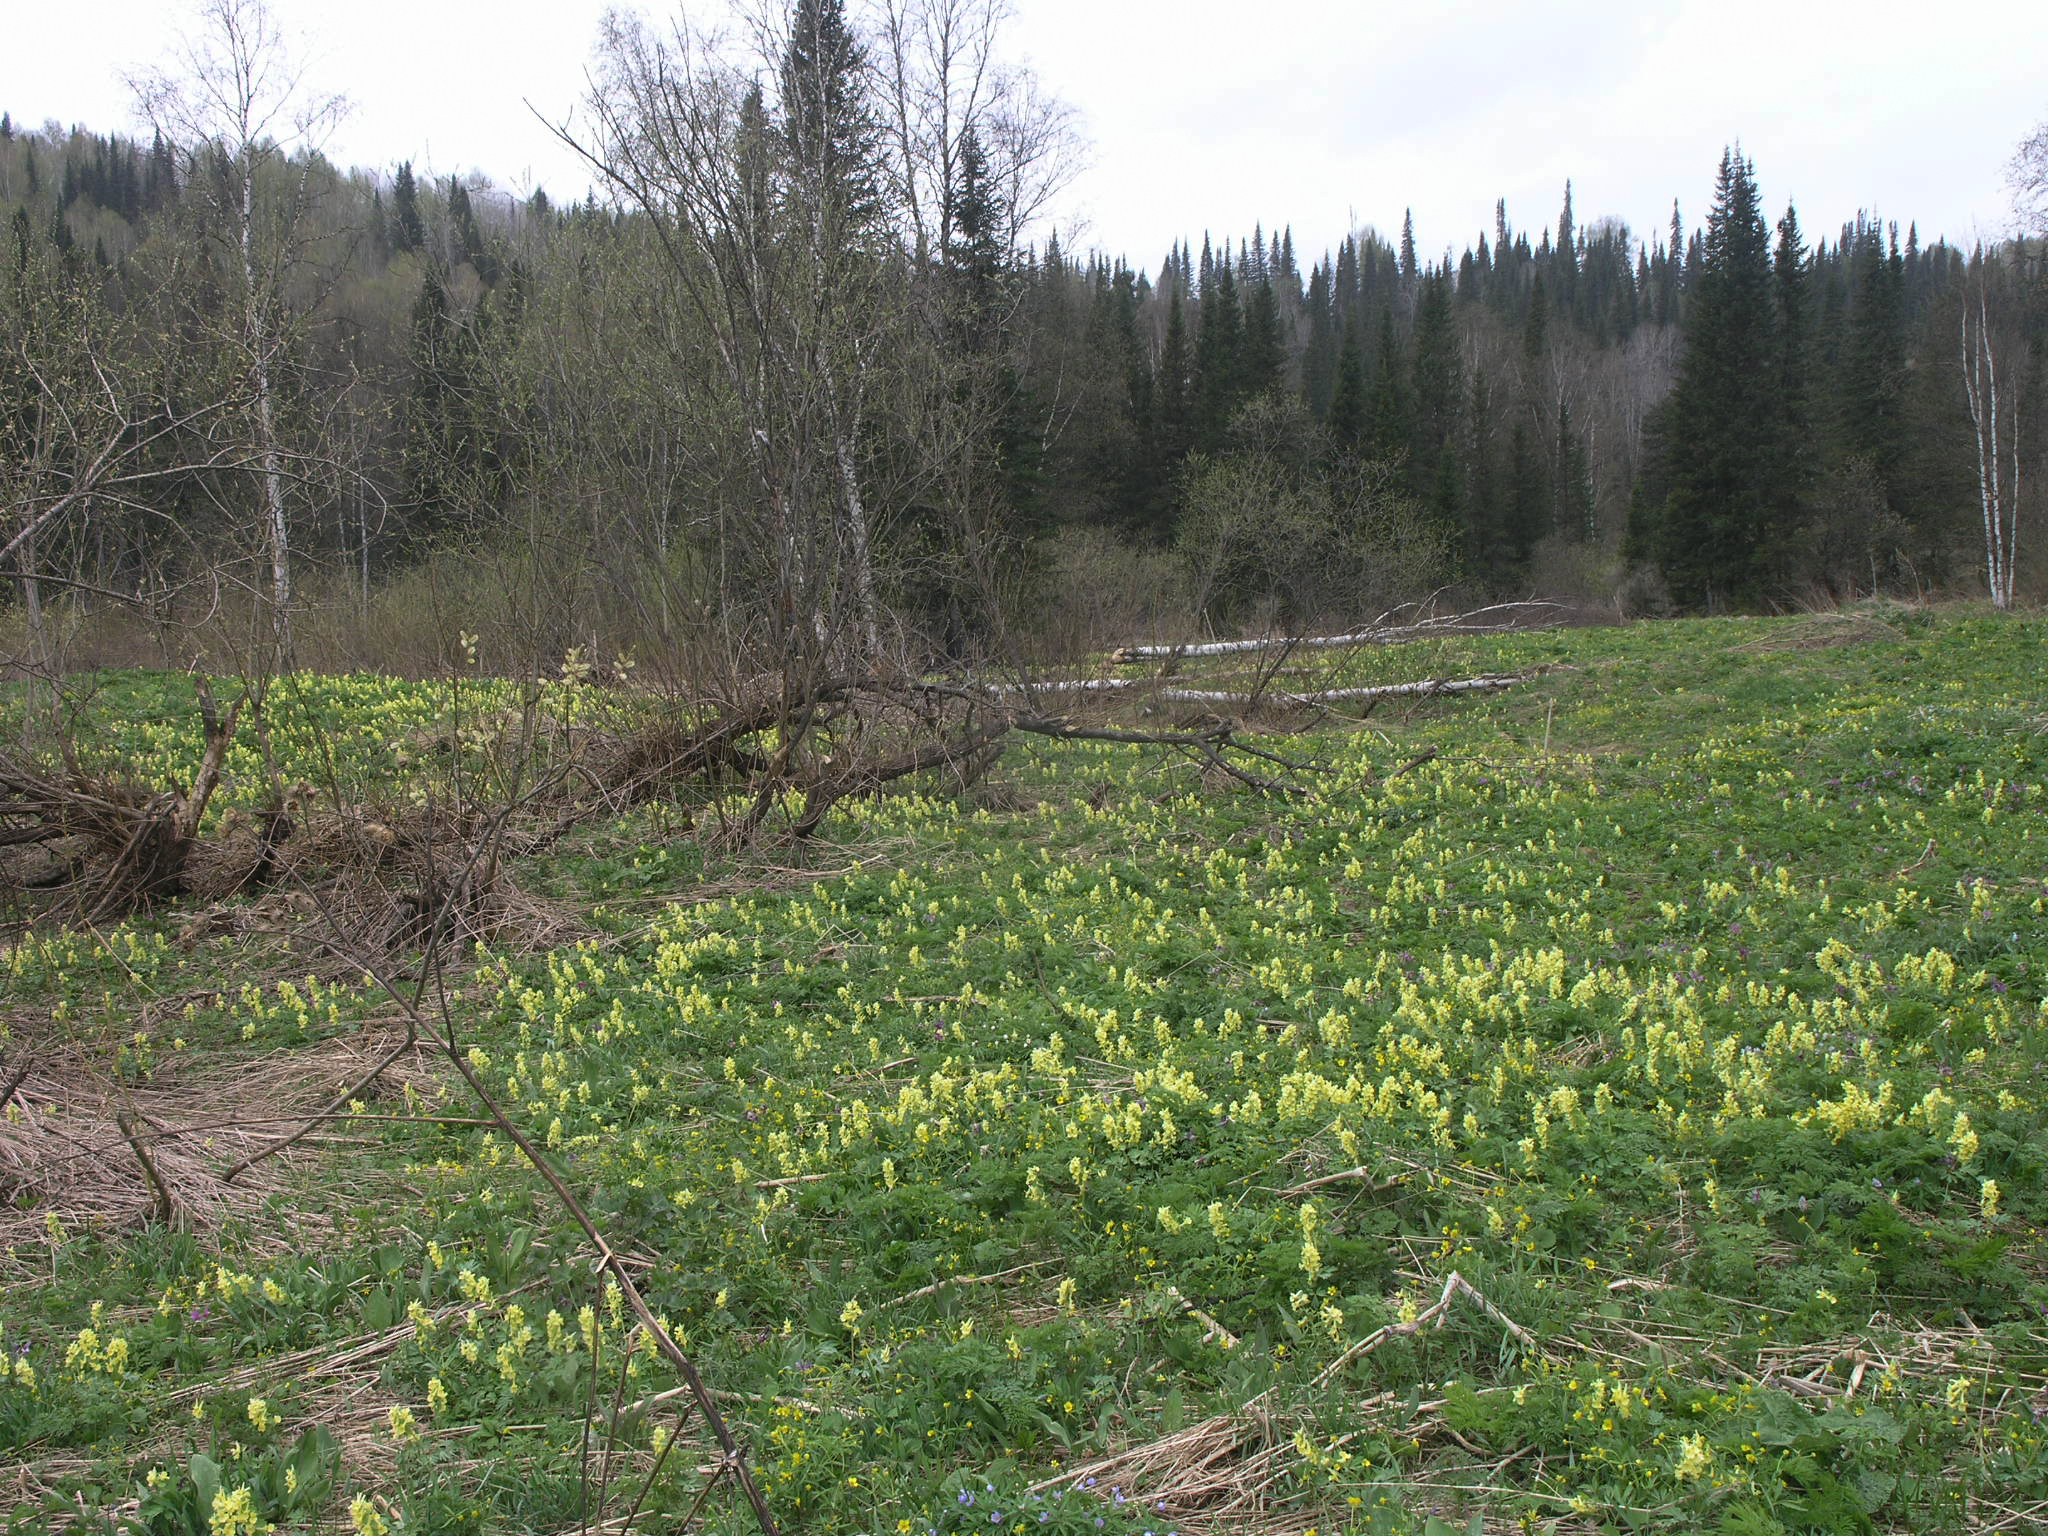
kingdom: Plantae
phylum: Tracheophyta
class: Pinopsida
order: Pinales
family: Pinaceae
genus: Abies
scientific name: Abies sibirica
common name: Siberian fir
